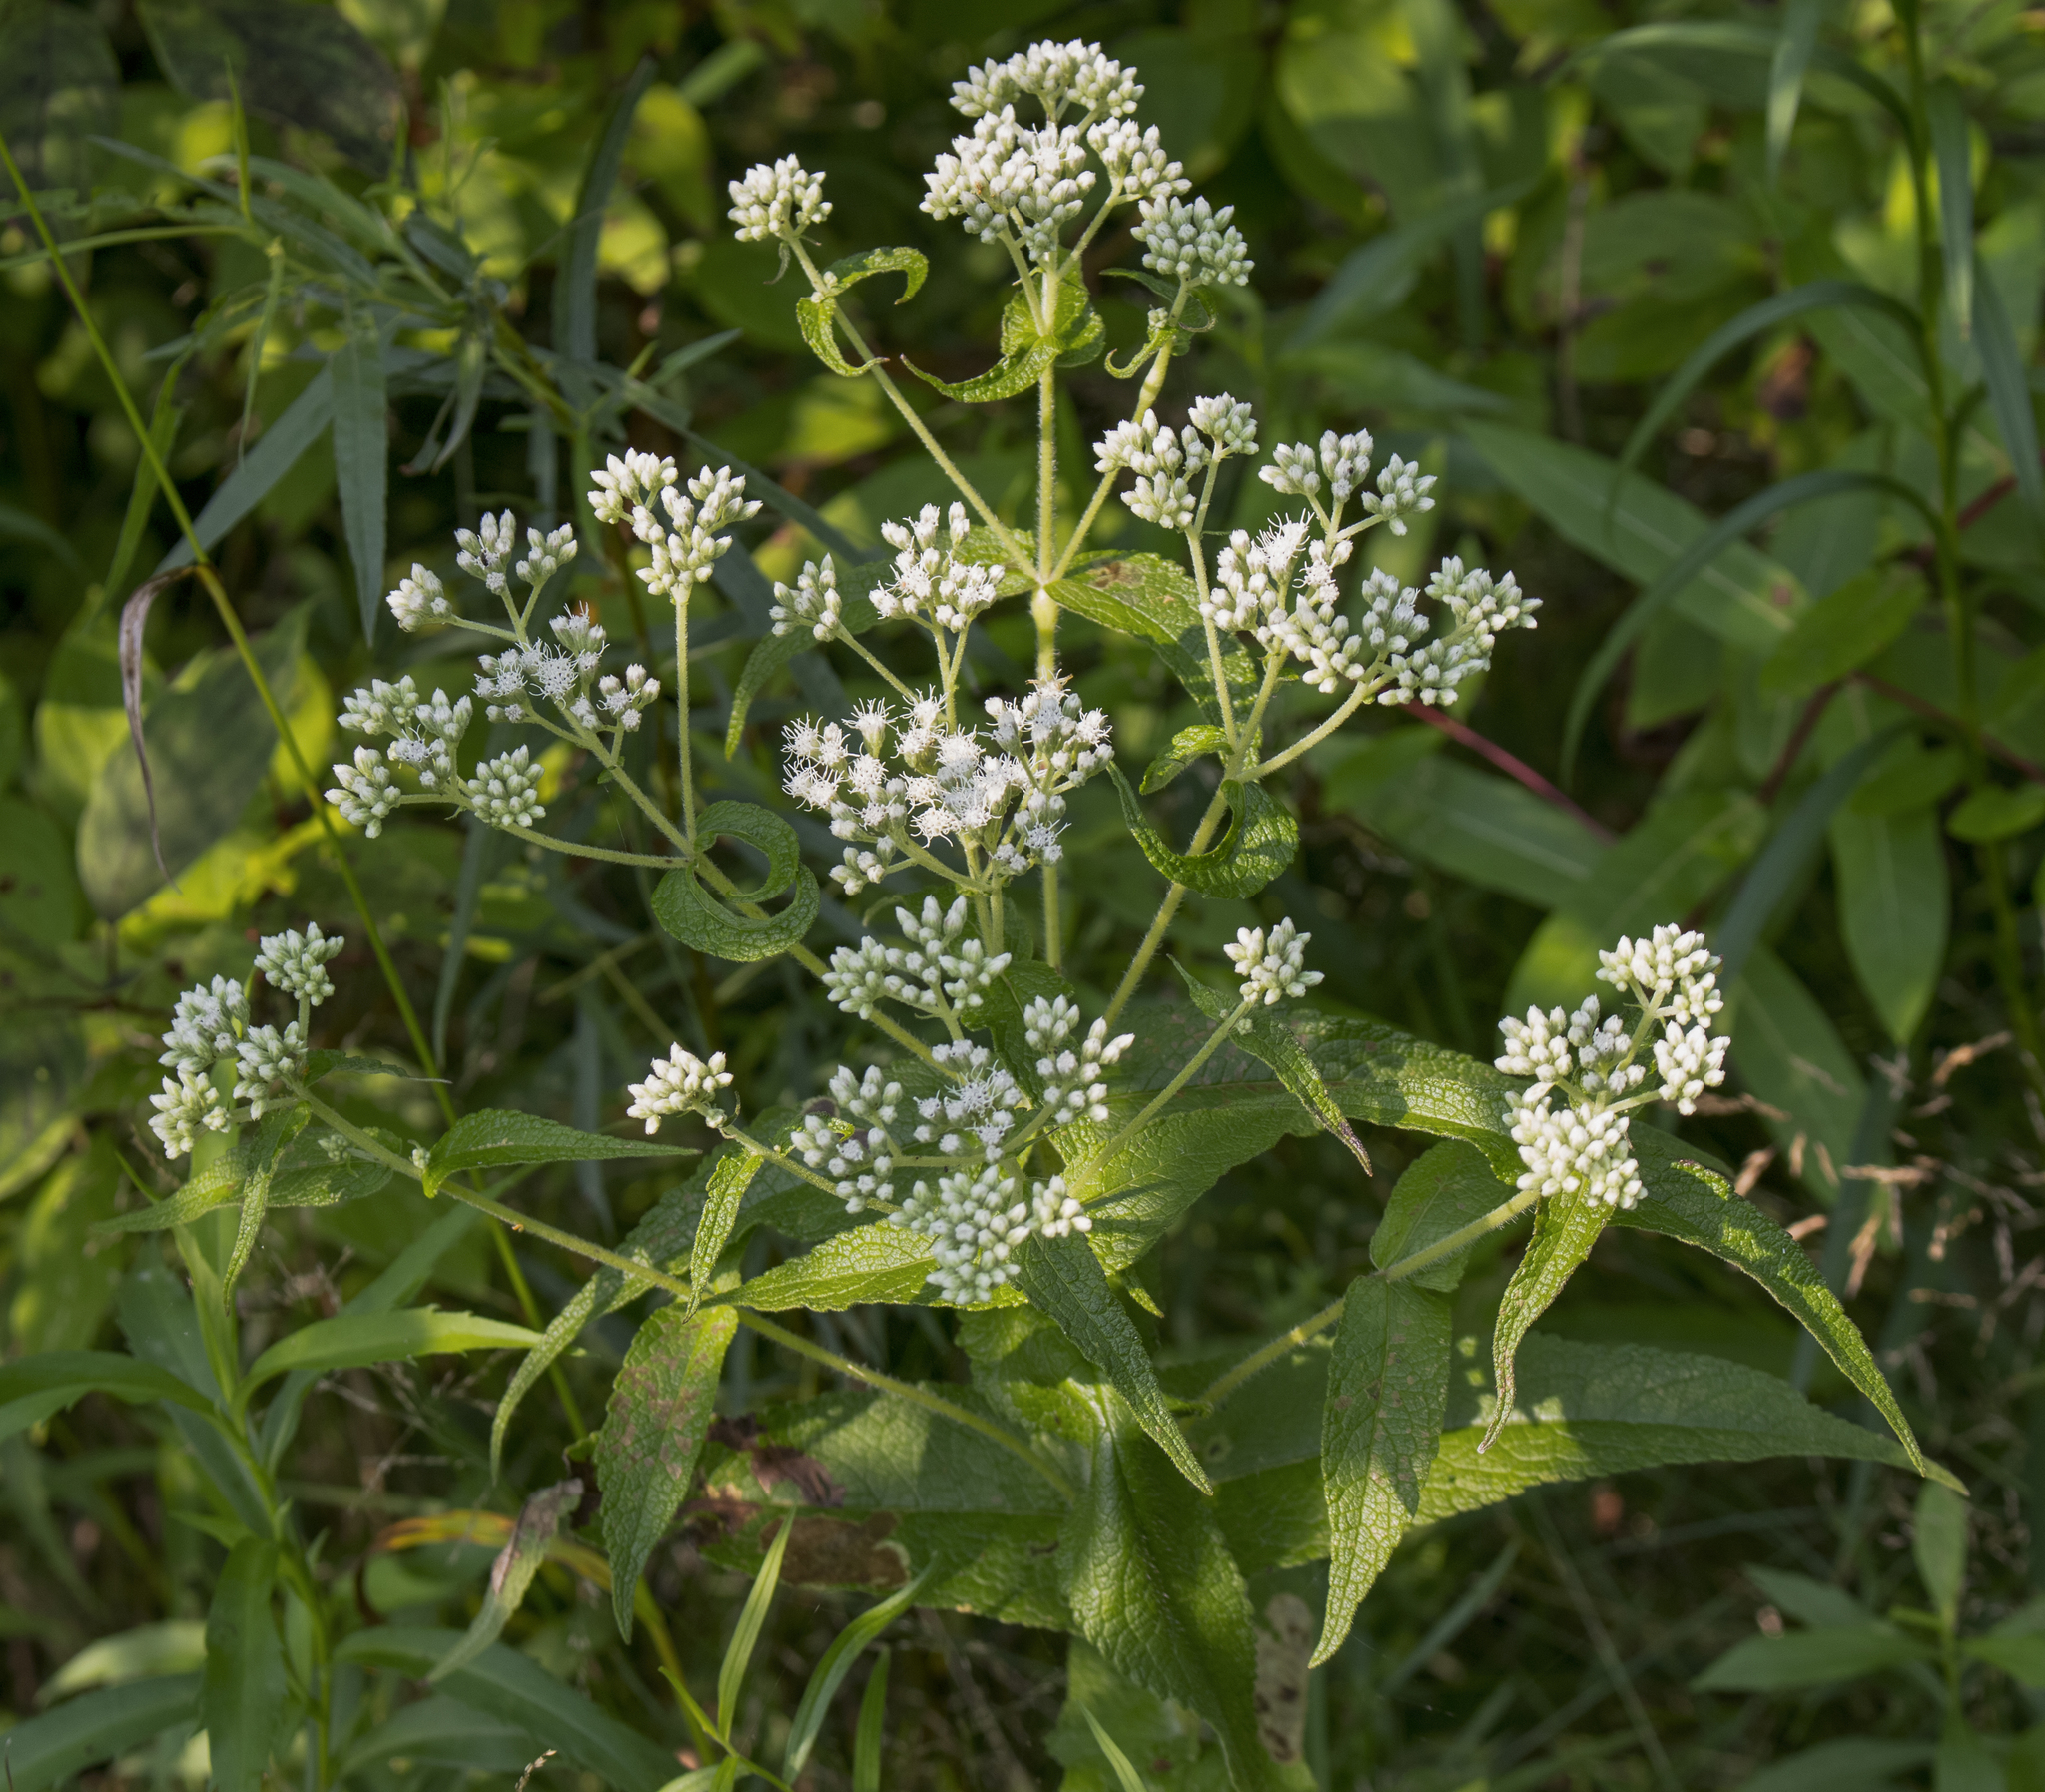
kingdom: Plantae
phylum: Tracheophyta
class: Magnoliopsida
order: Asterales
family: Asteraceae
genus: Eupatorium
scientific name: Eupatorium perfoliatum
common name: Boneset
